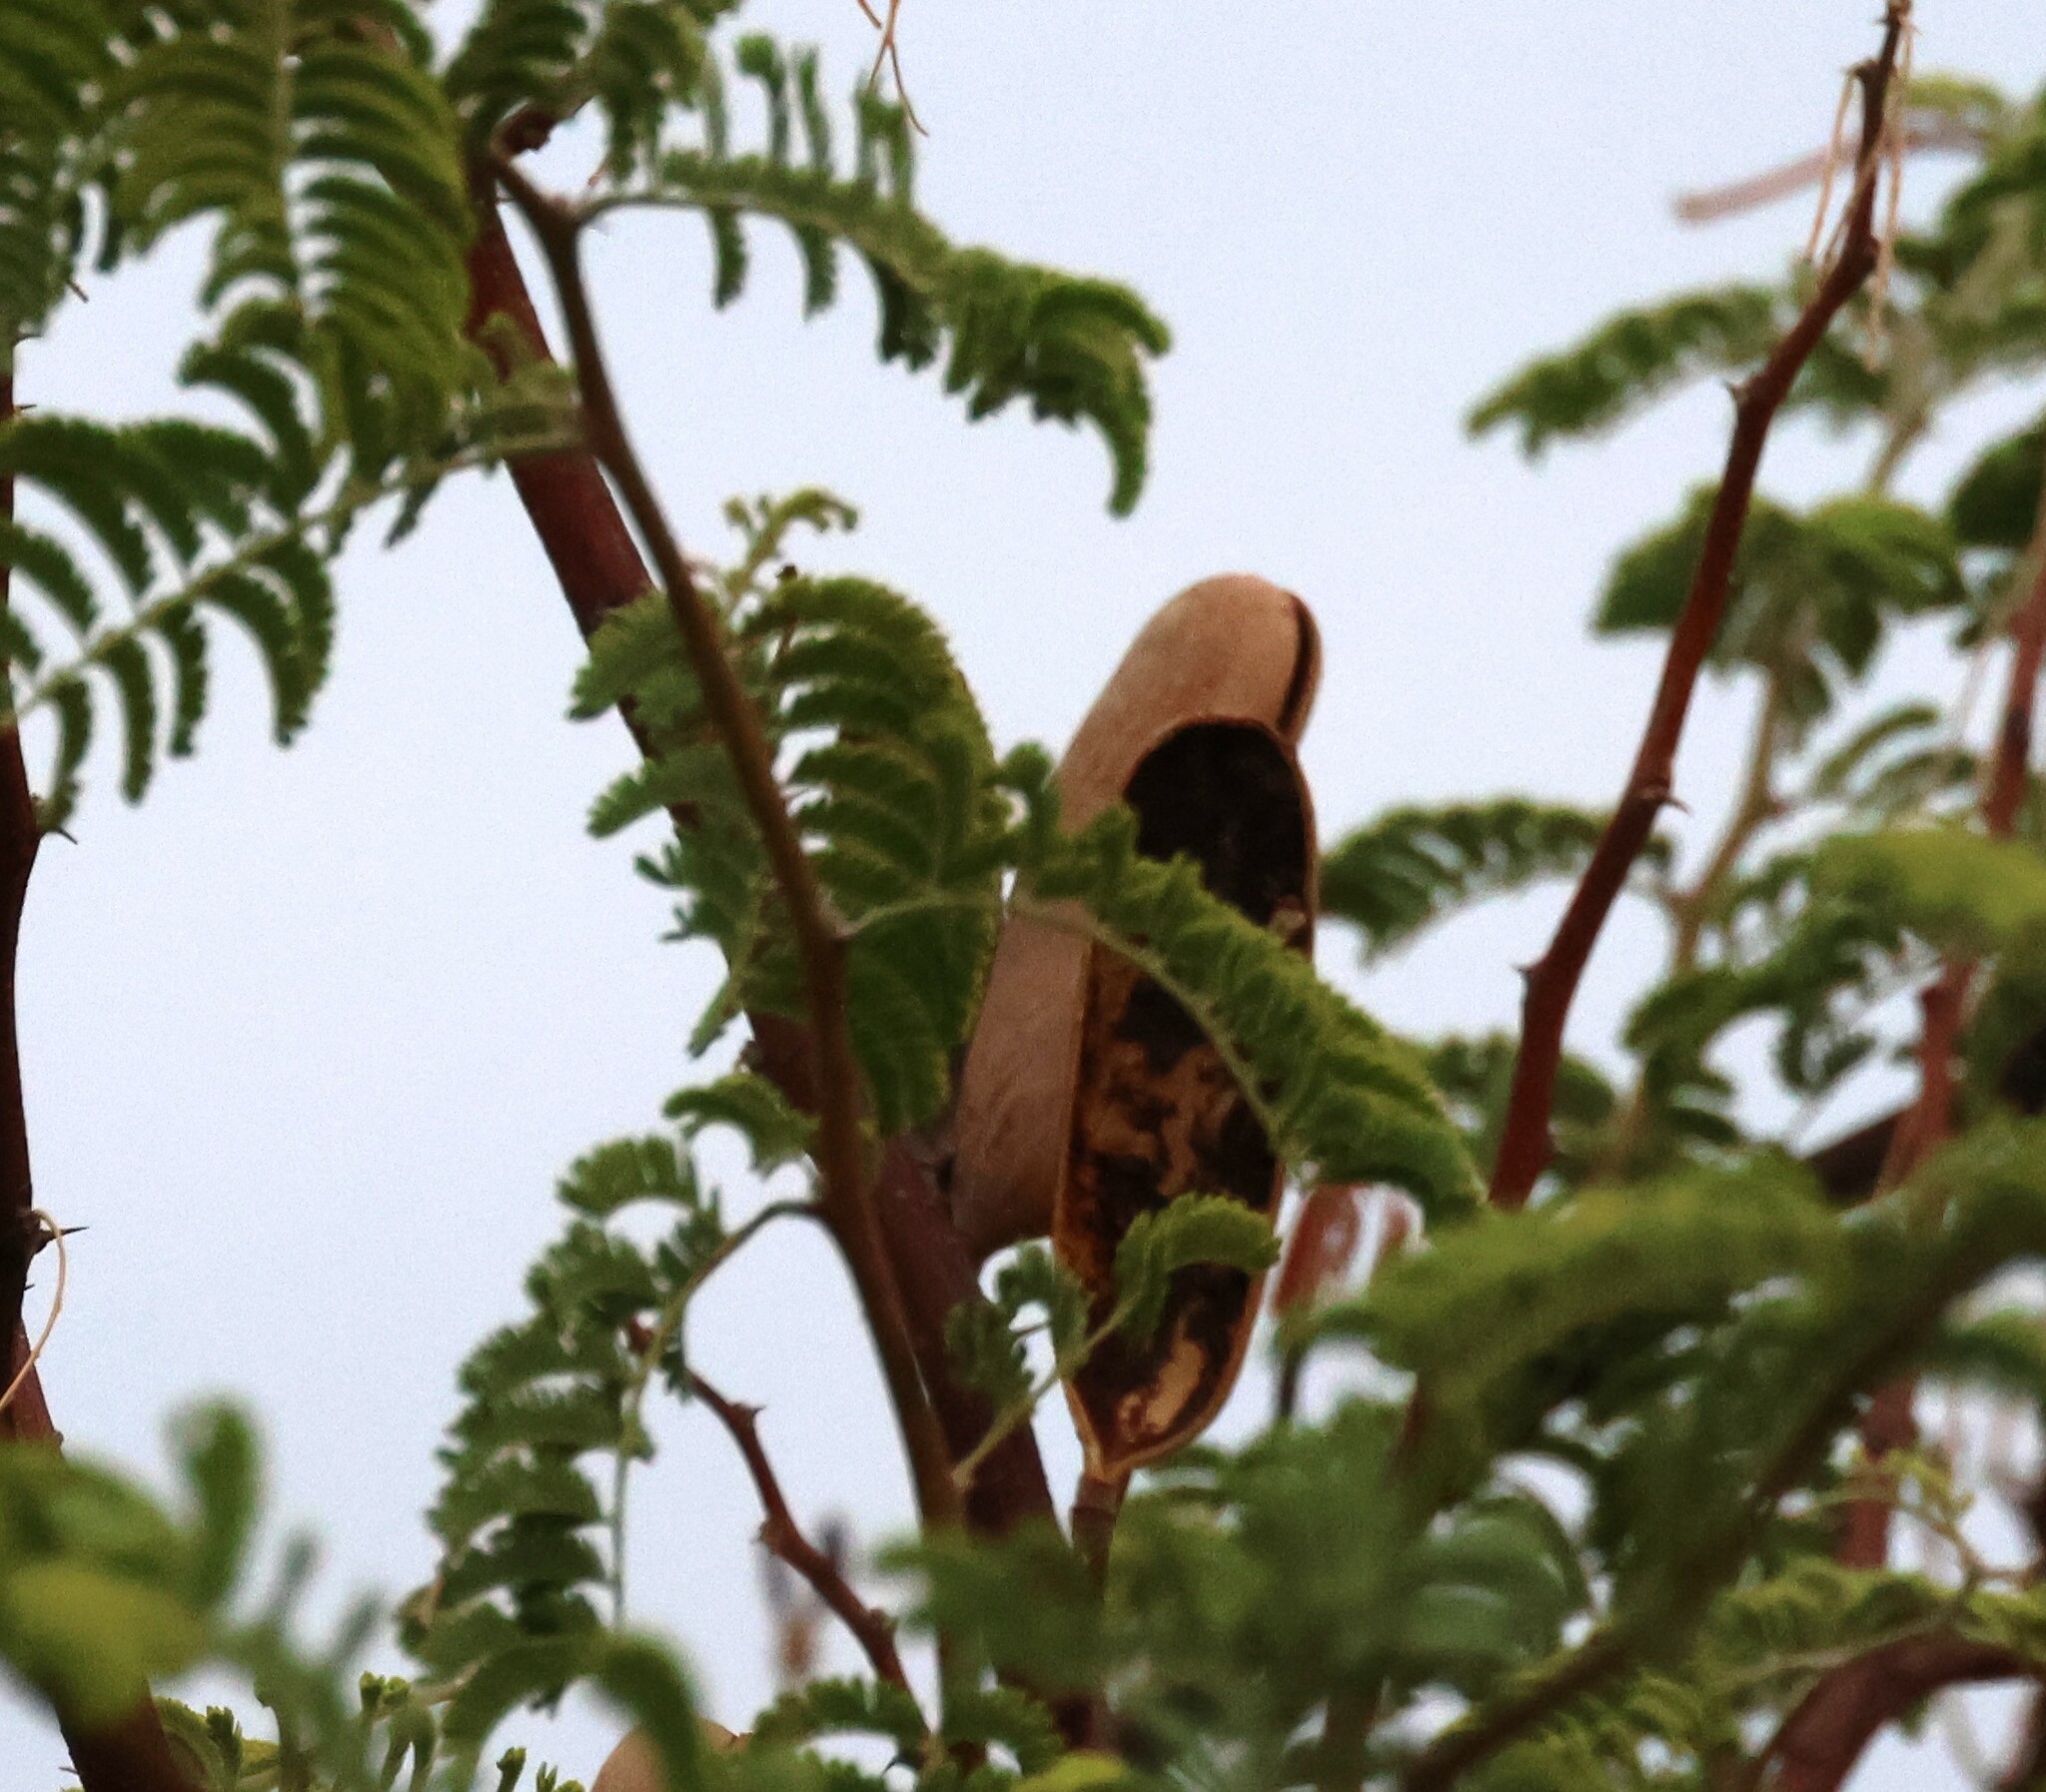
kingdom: Plantae
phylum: Tracheophyta
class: Magnoliopsida
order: Fabales
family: Fabaceae
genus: Vachellia
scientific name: Vachellia hebeclada
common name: Candle thorn
